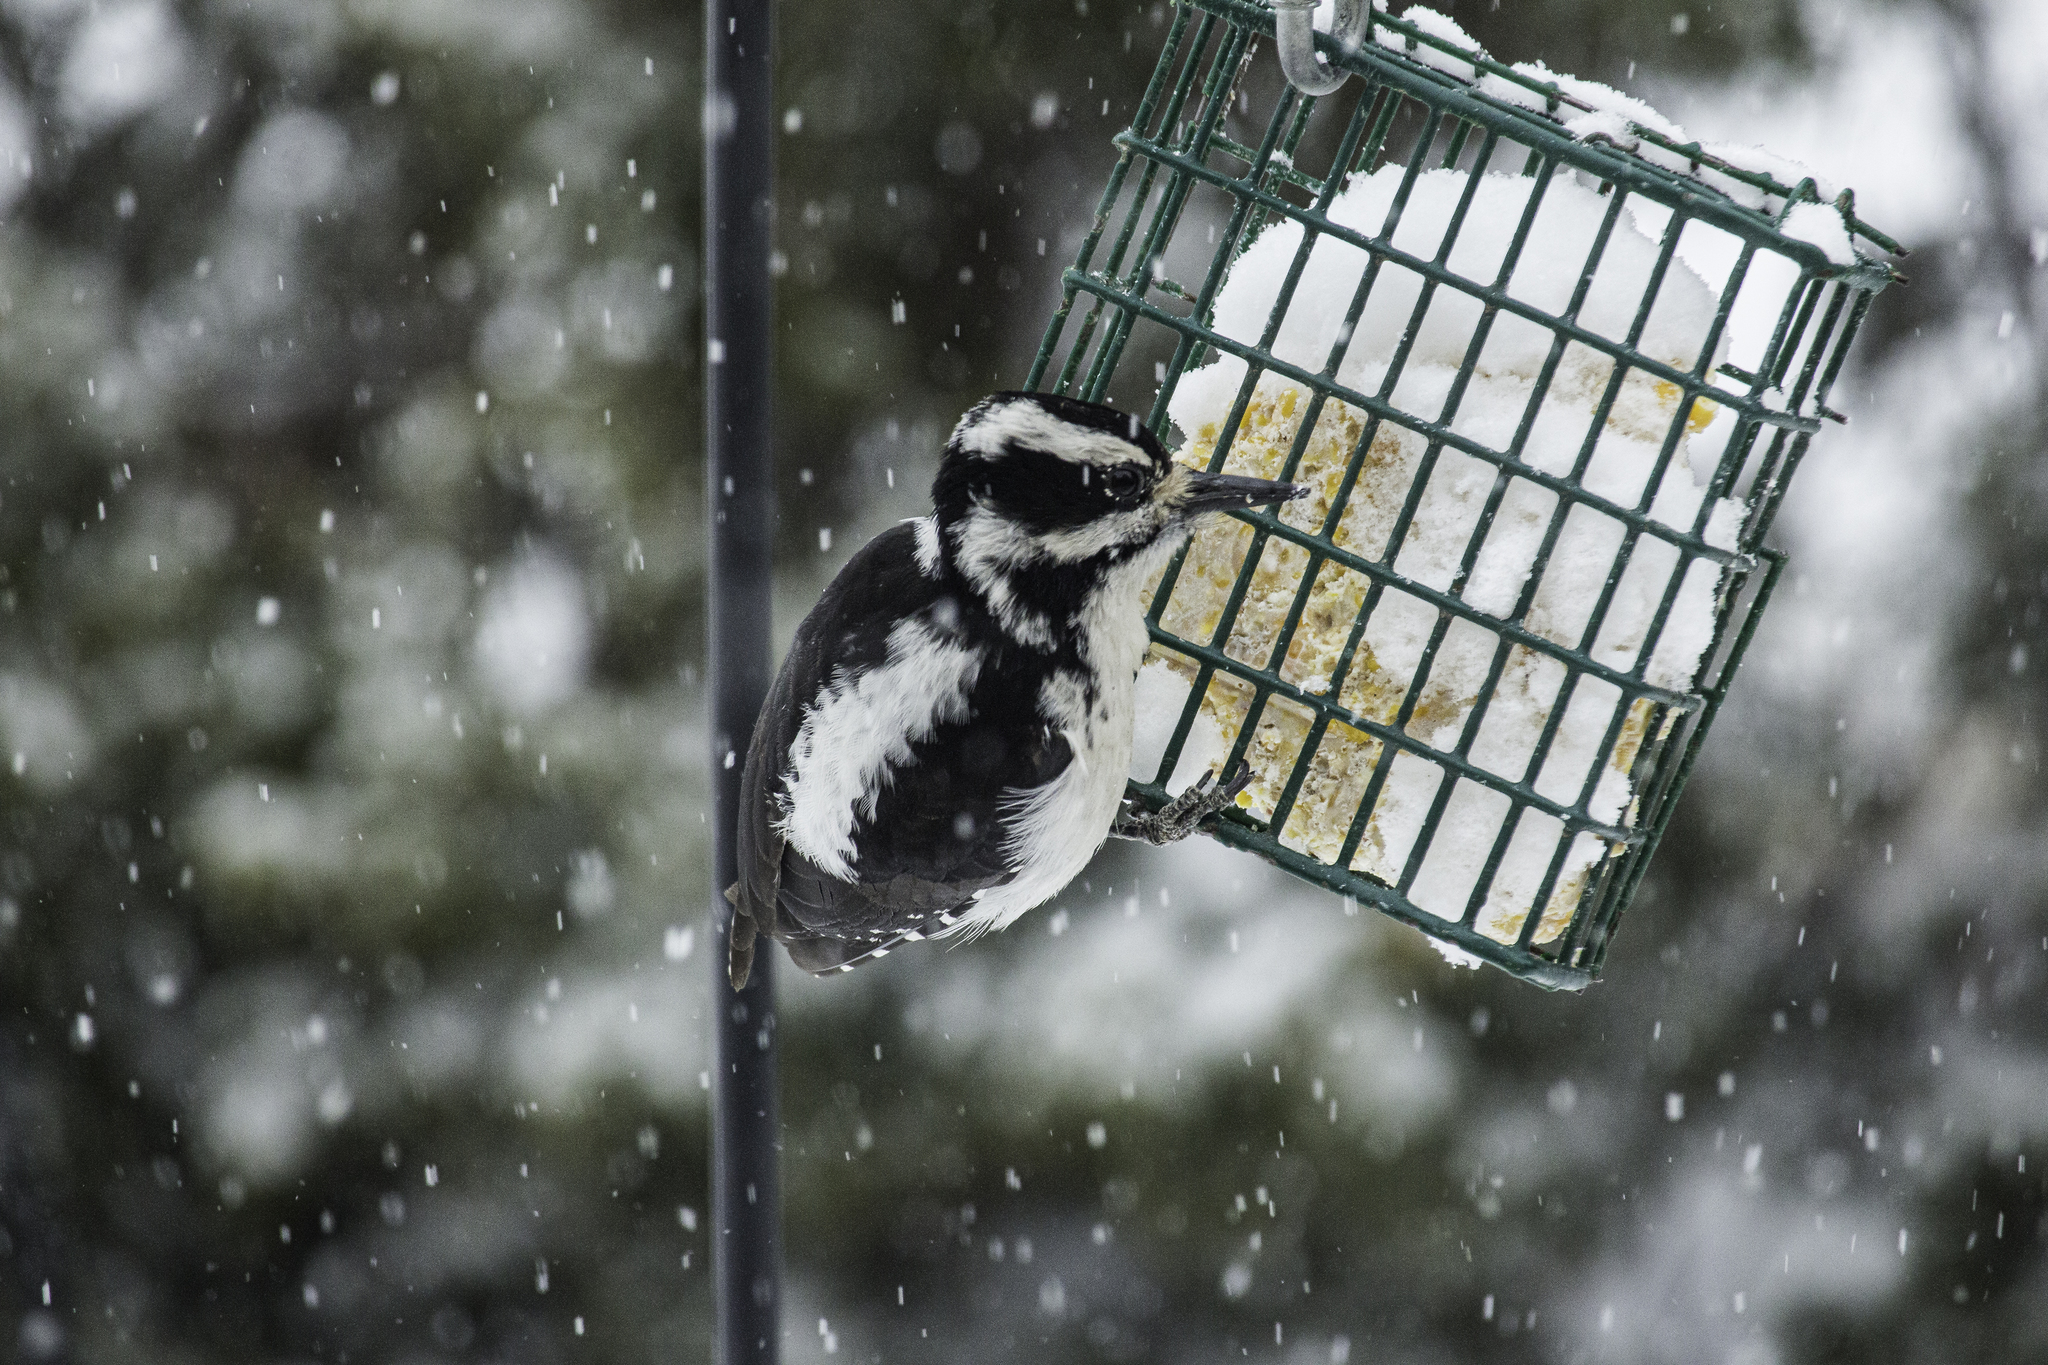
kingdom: Animalia
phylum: Chordata
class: Aves
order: Piciformes
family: Picidae
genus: Leuconotopicus
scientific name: Leuconotopicus villosus
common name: Hairy woodpecker
